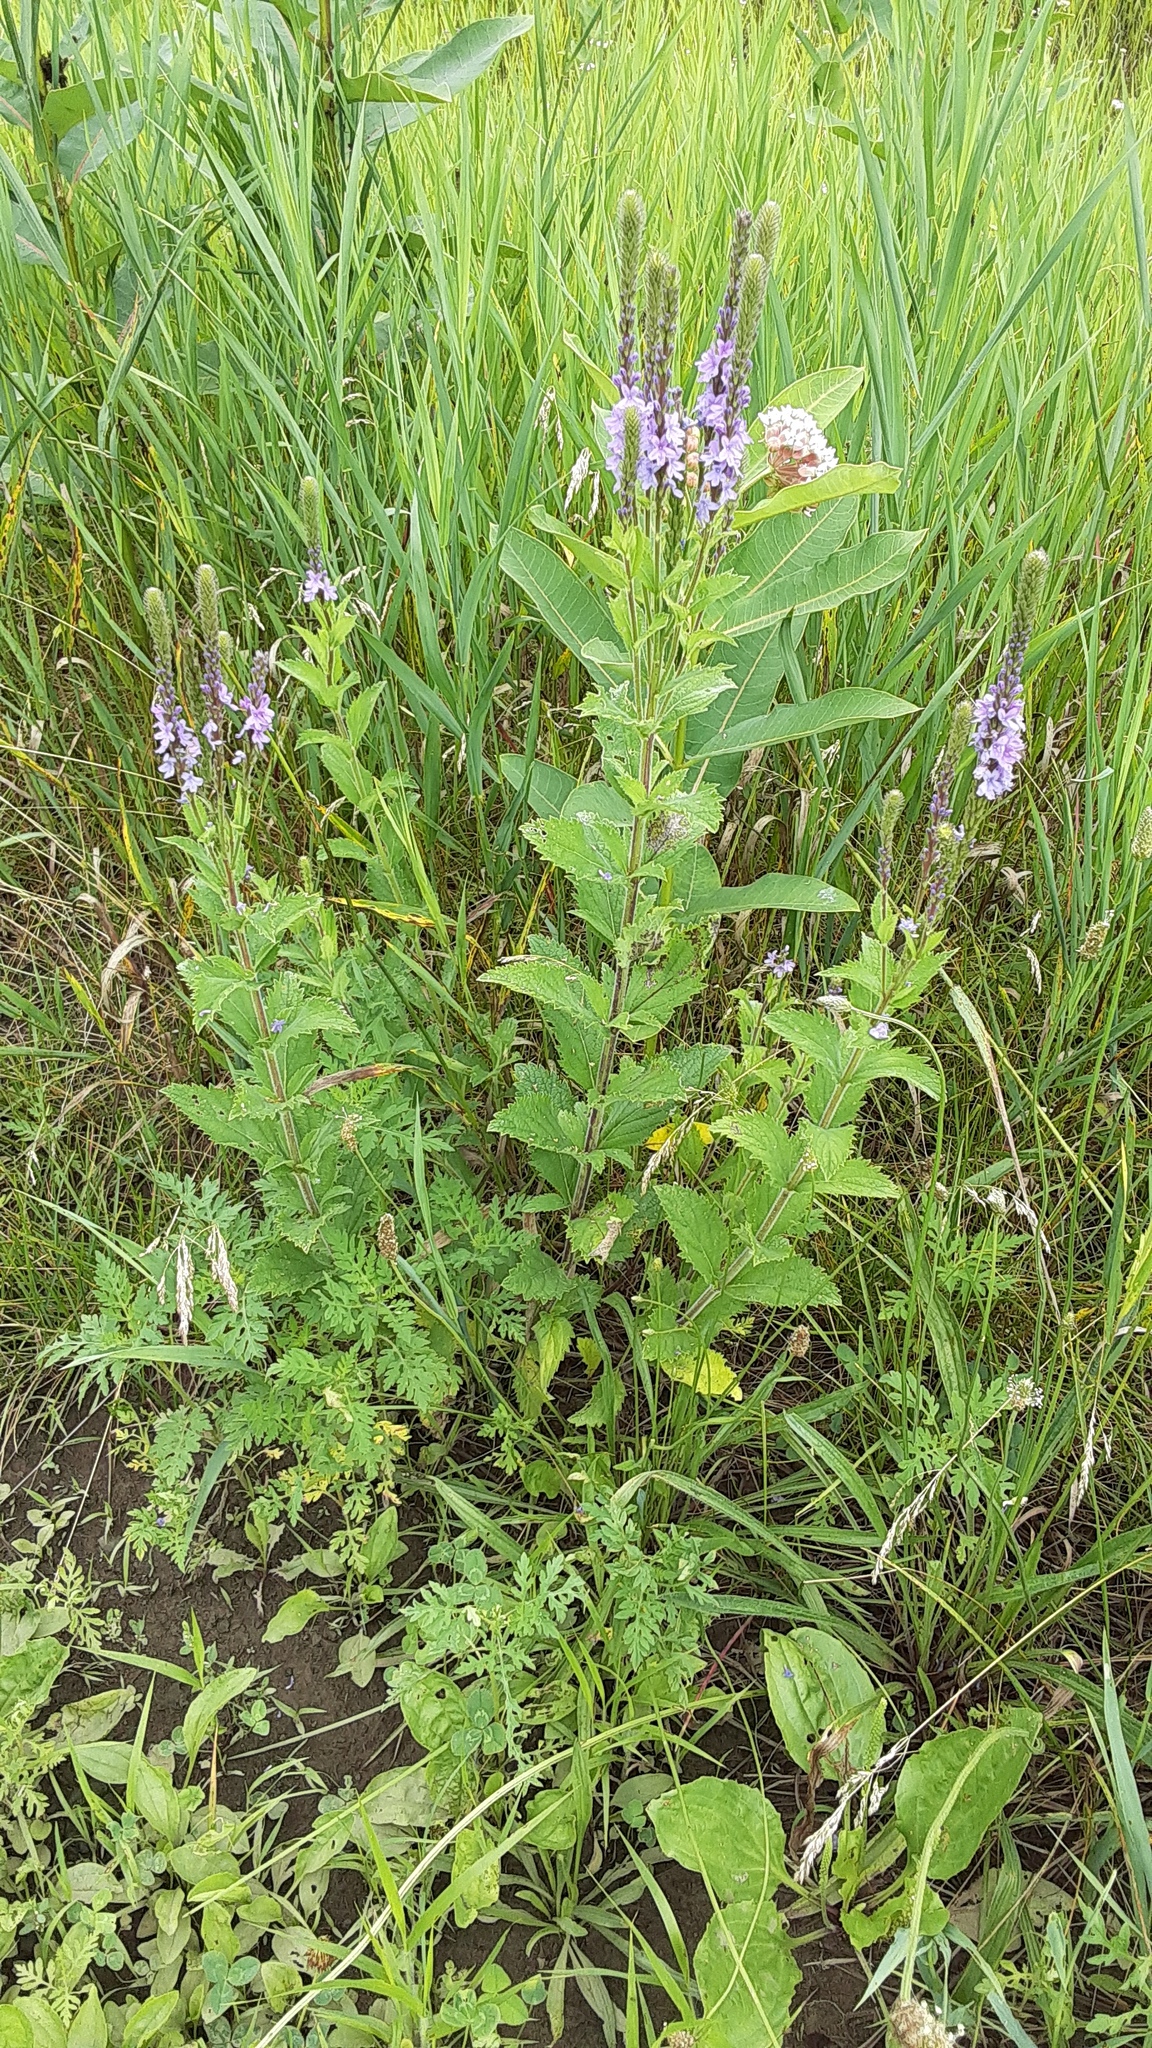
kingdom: Plantae
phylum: Tracheophyta
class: Magnoliopsida
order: Lamiales
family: Verbenaceae
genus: Verbena
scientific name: Verbena stricta
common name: Hoary vervain
